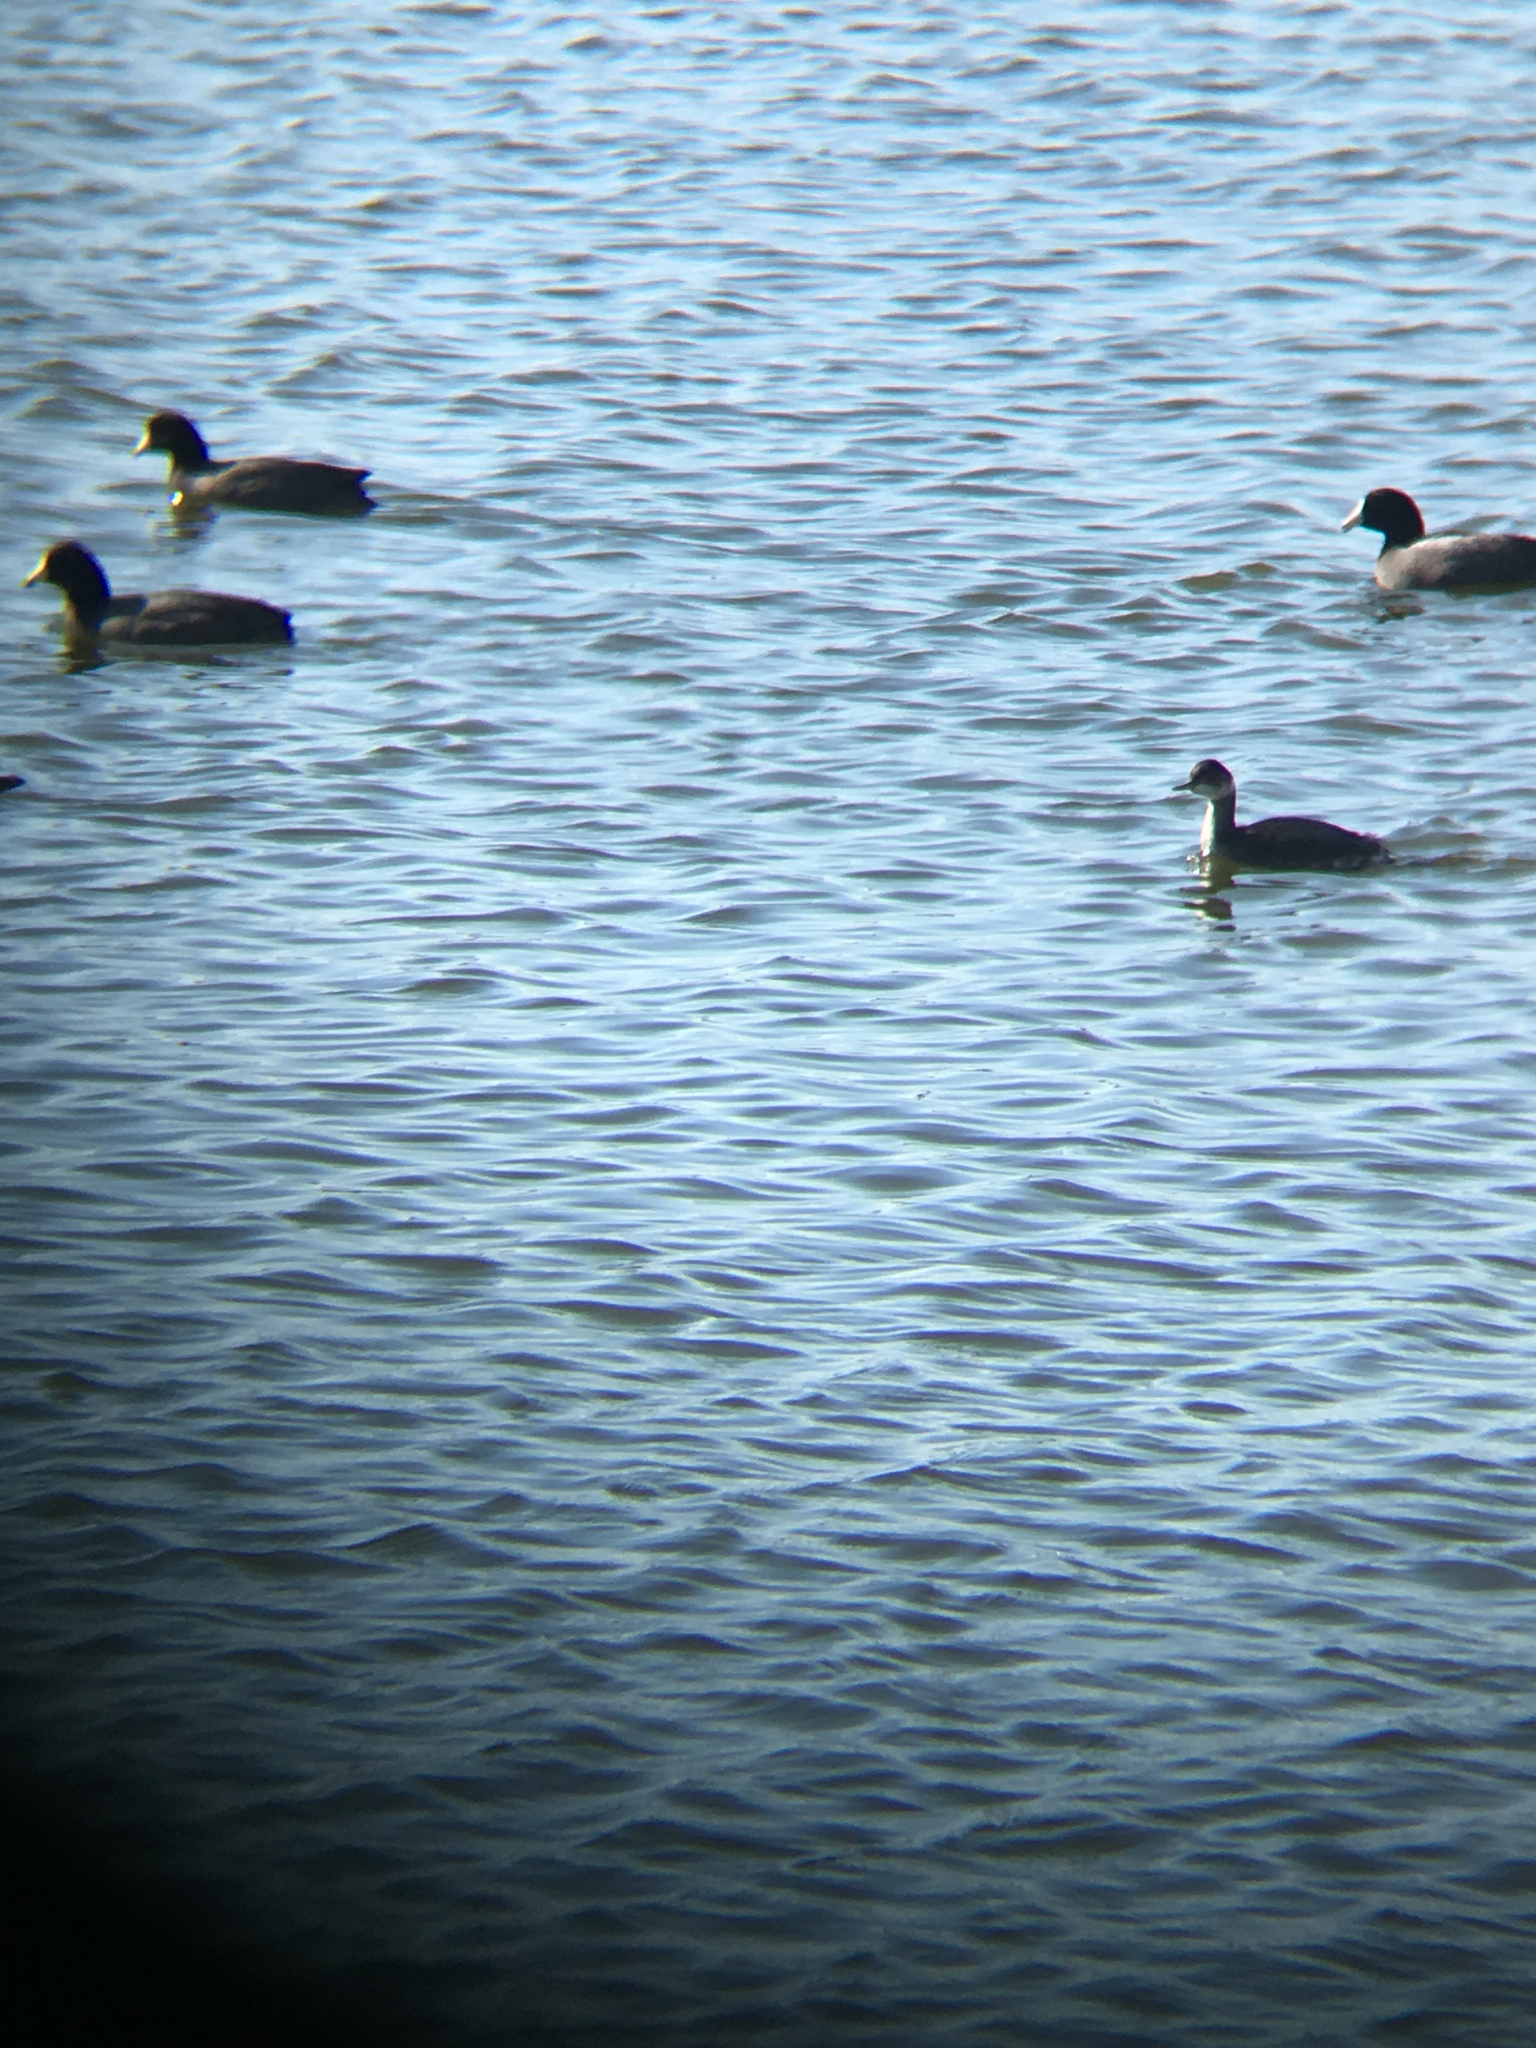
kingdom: Animalia
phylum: Chordata
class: Aves
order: Podicipediformes
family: Podicipedidae
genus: Podiceps
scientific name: Podiceps nigricollis
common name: Black-necked grebe
